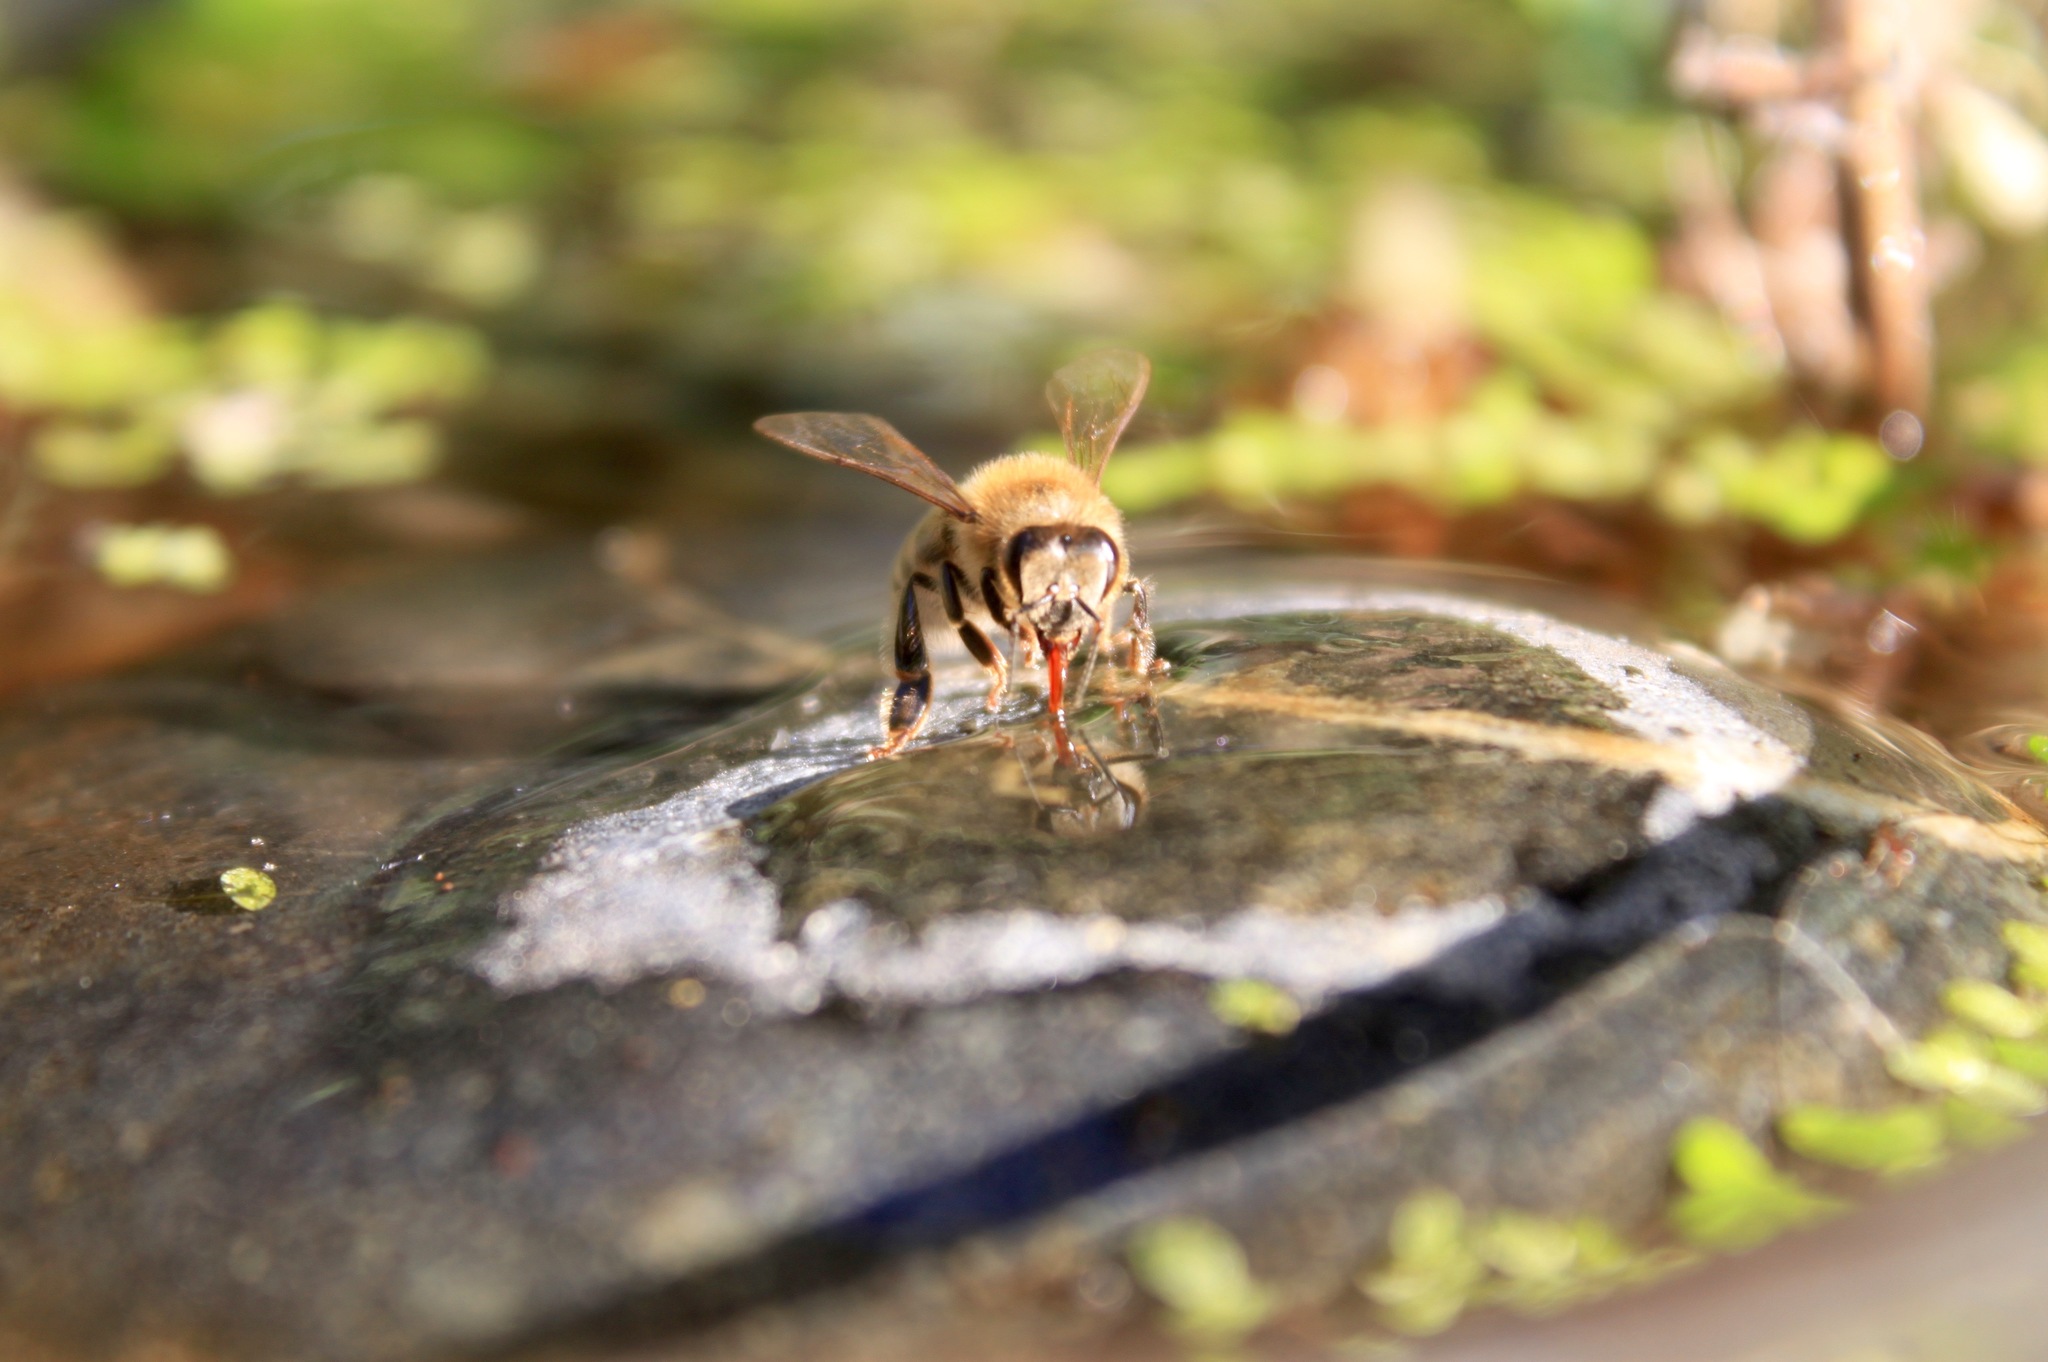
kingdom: Animalia
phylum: Arthropoda
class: Insecta
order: Hymenoptera
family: Apidae
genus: Apis
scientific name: Apis mellifera
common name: Honey bee
